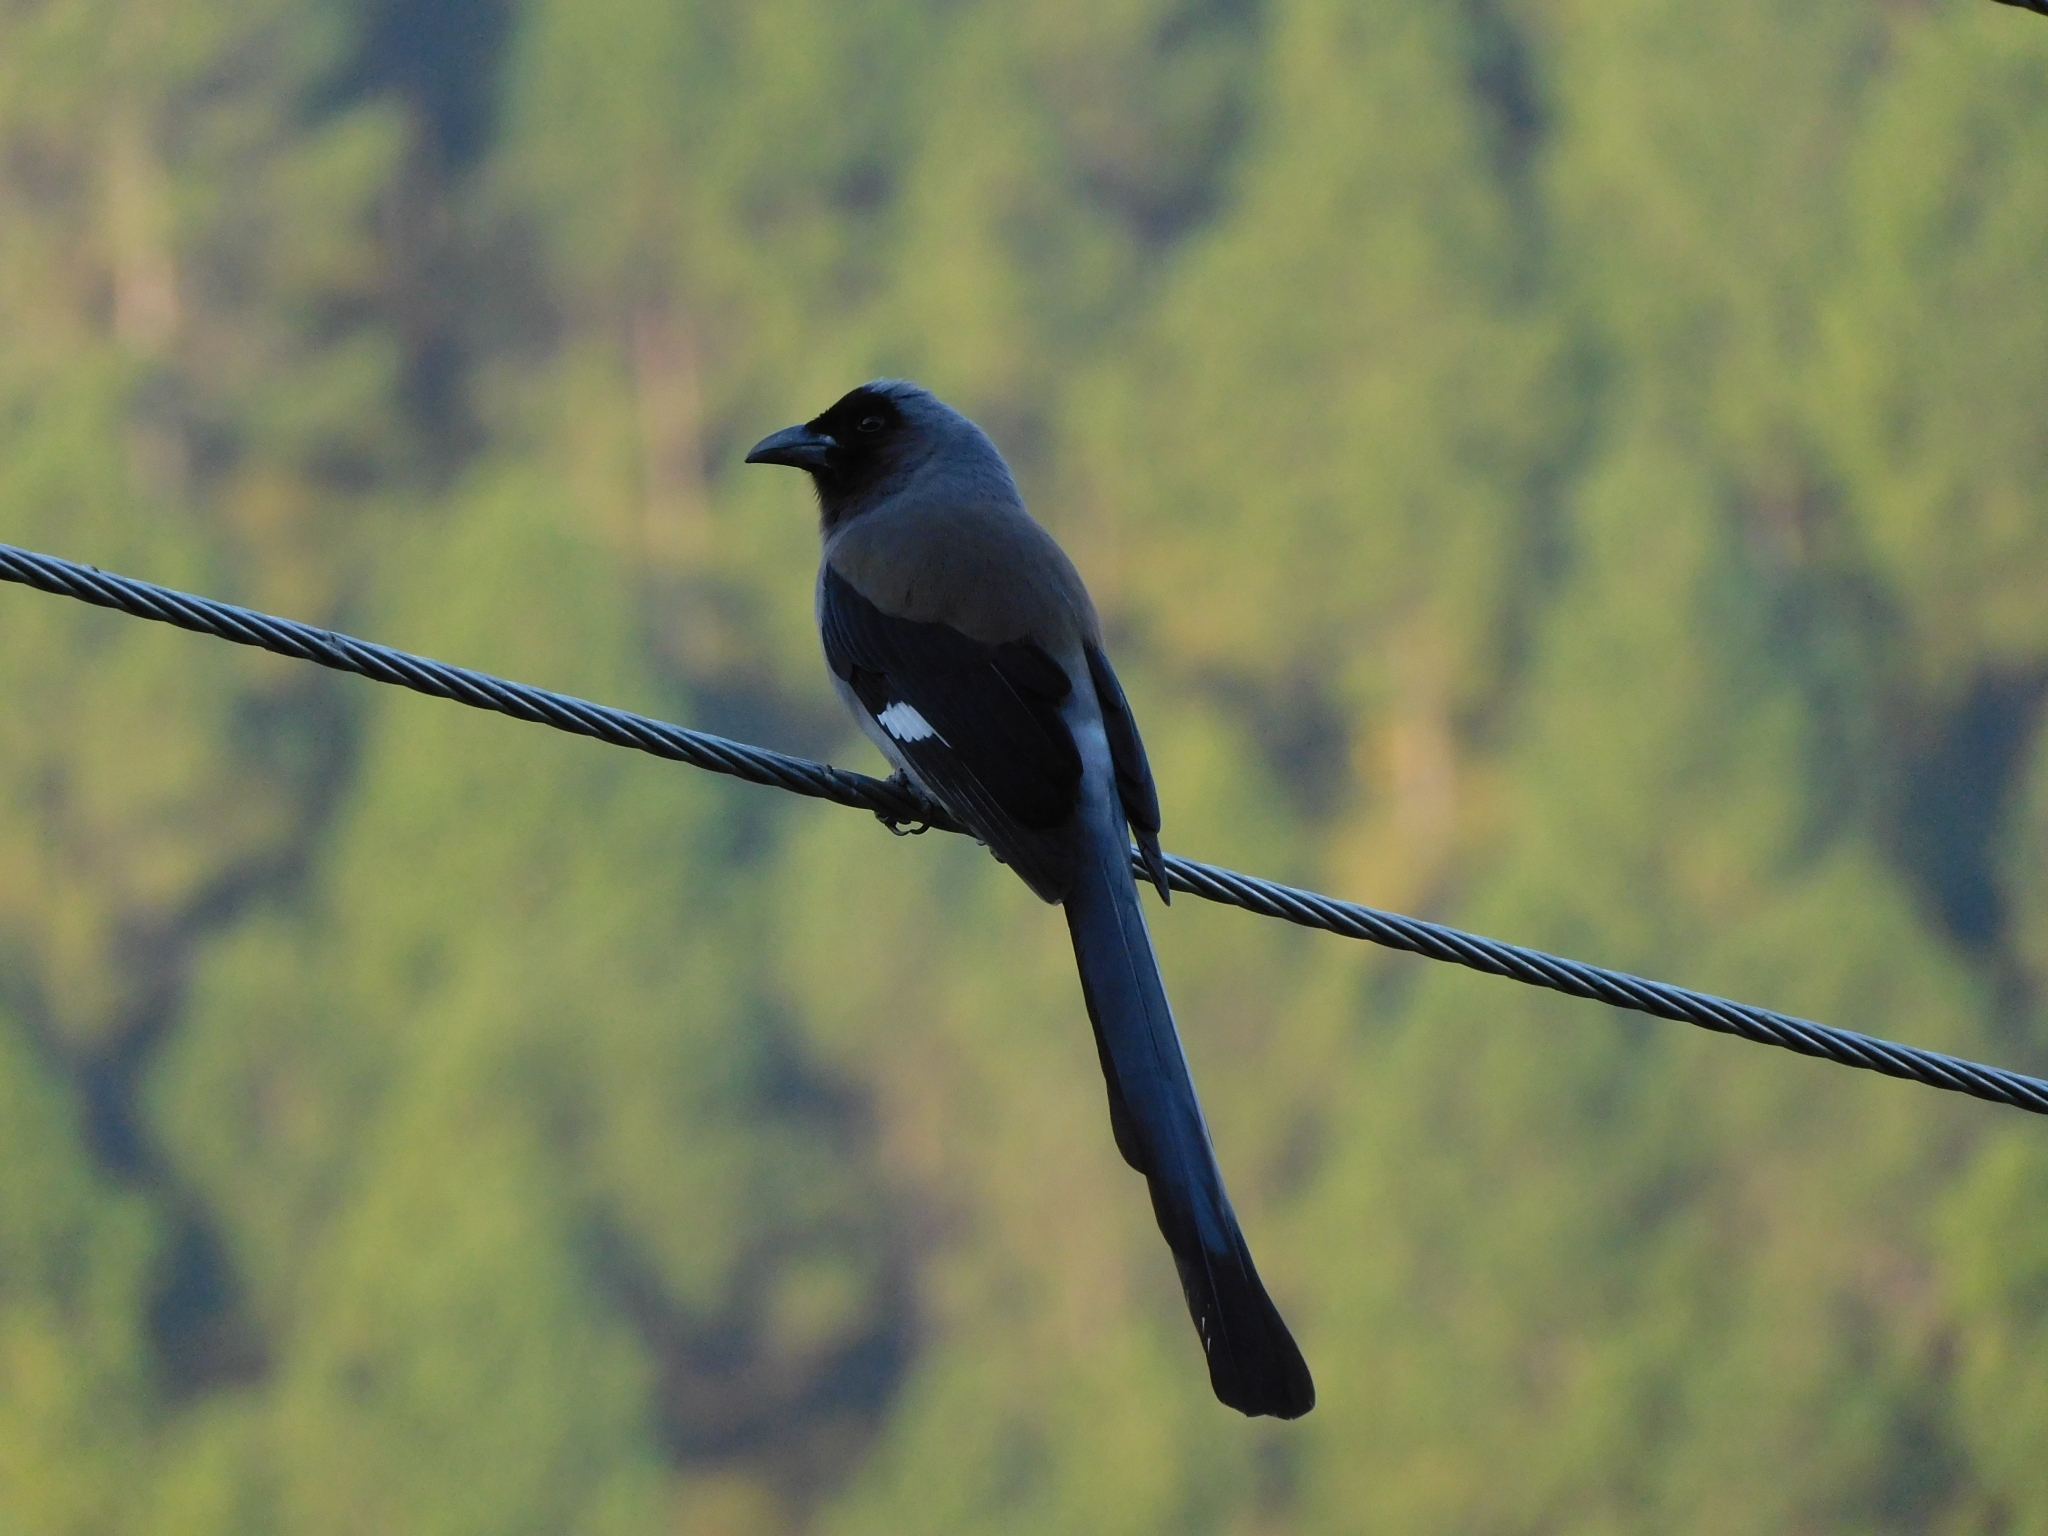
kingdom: Animalia
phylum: Chordata
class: Aves
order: Passeriformes
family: Corvidae
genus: Dendrocitta
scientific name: Dendrocitta formosae
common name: Grey treepie
